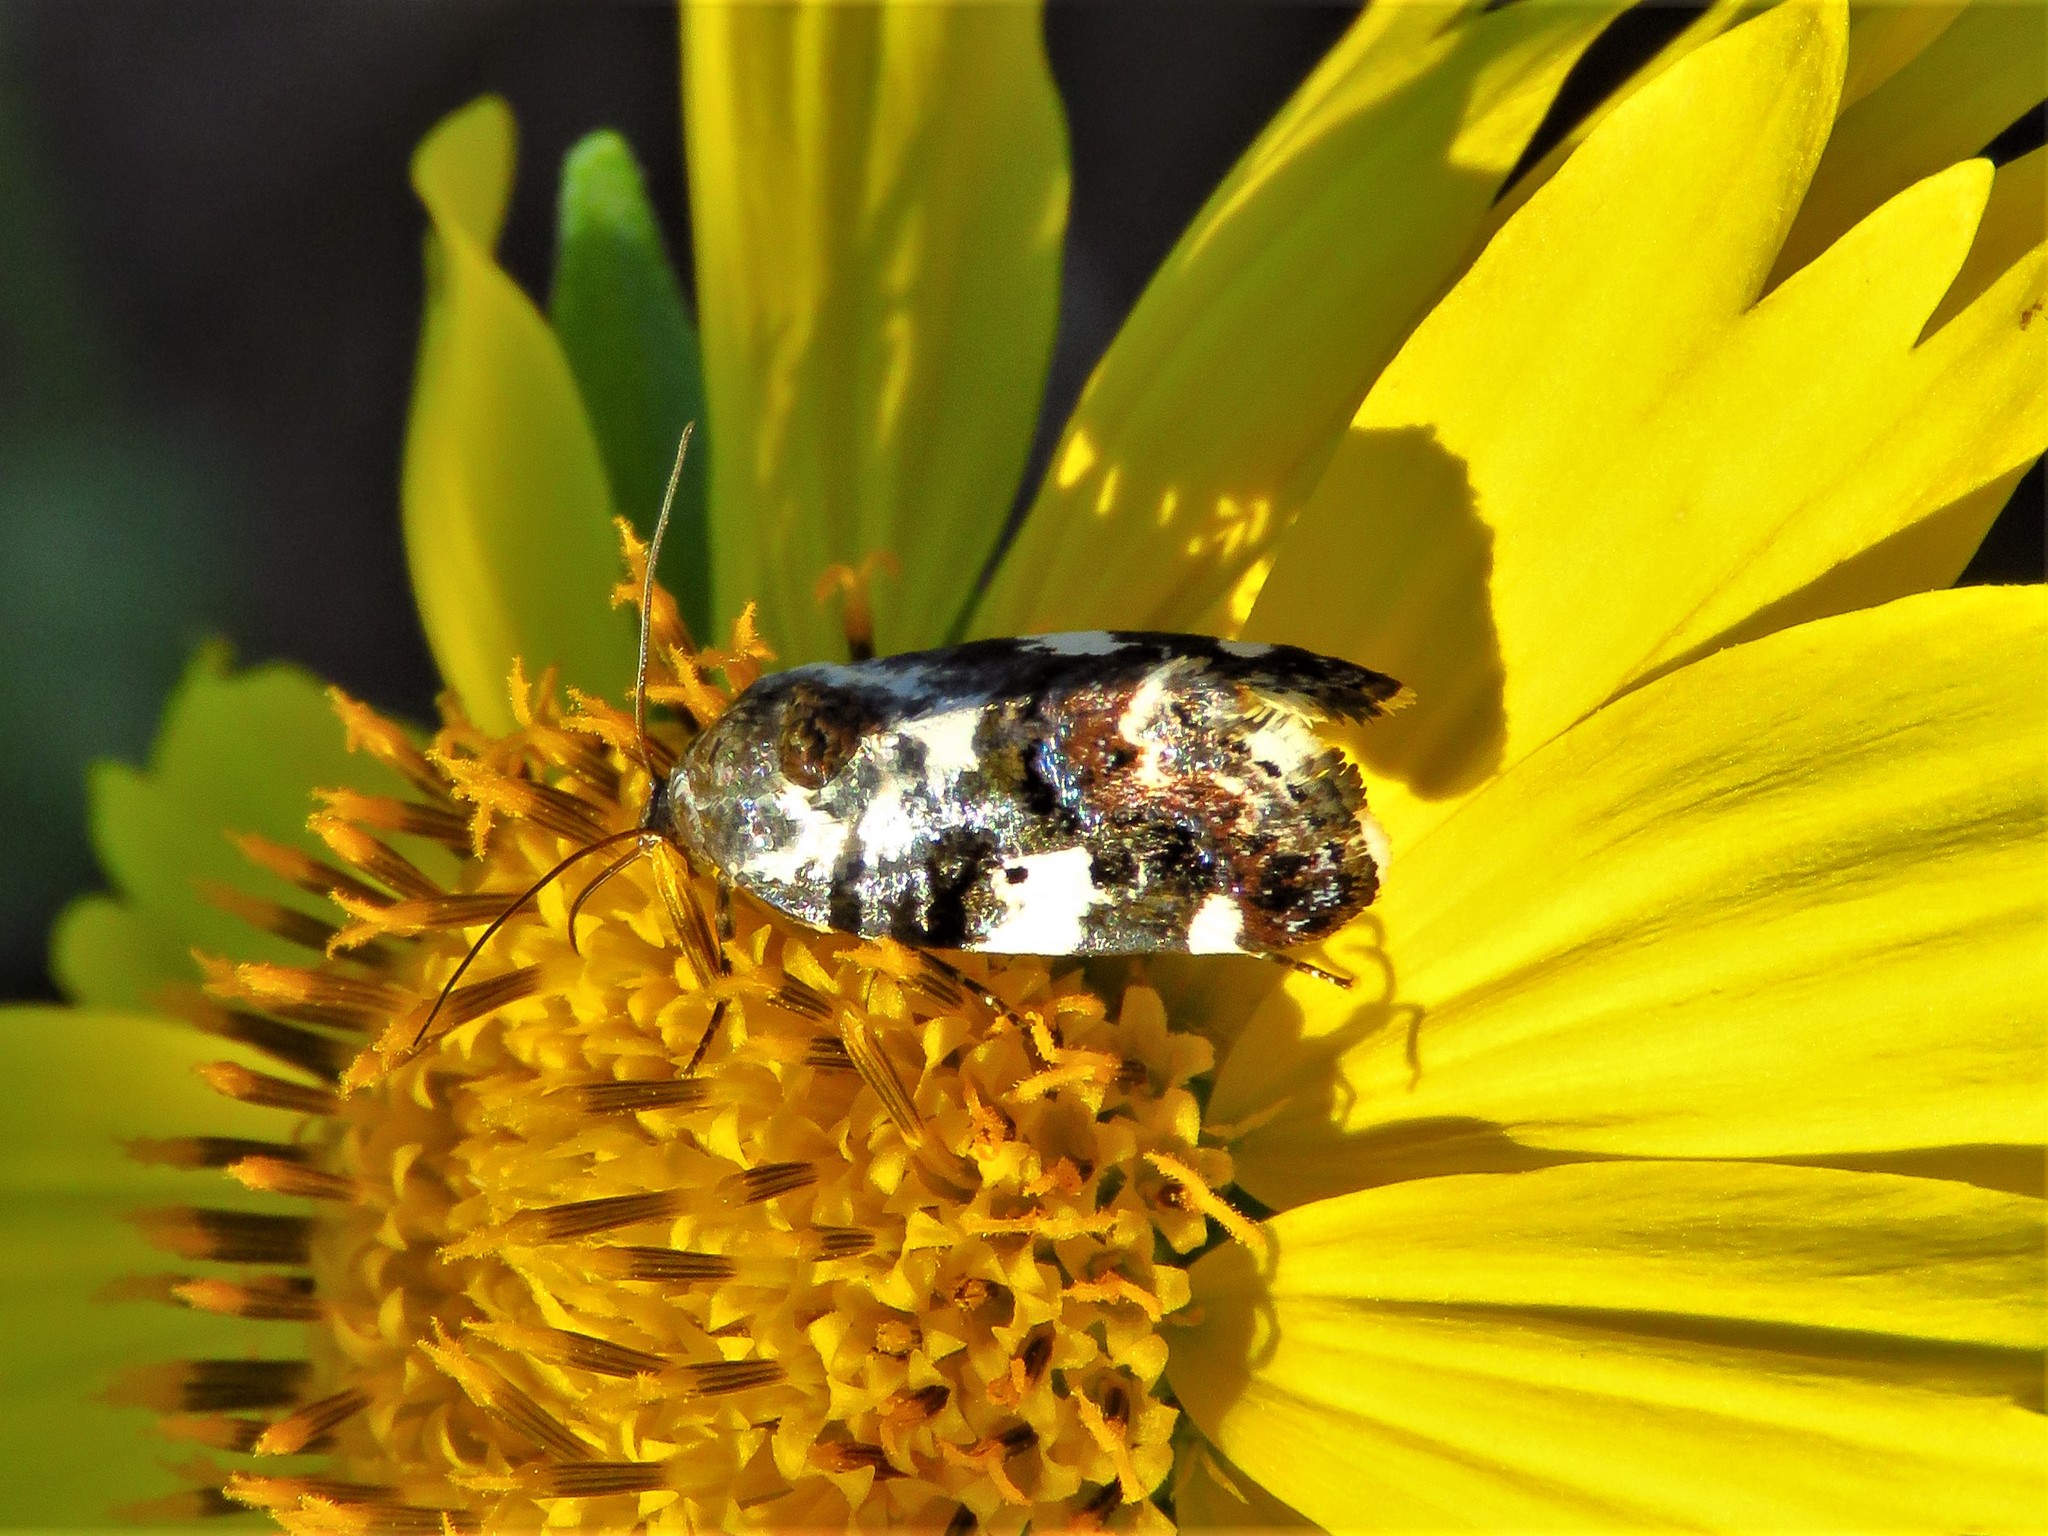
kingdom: Animalia
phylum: Arthropoda
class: Insecta
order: Lepidoptera
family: Noctuidae
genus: Acontia
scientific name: Acontia Tarache abdominalis
